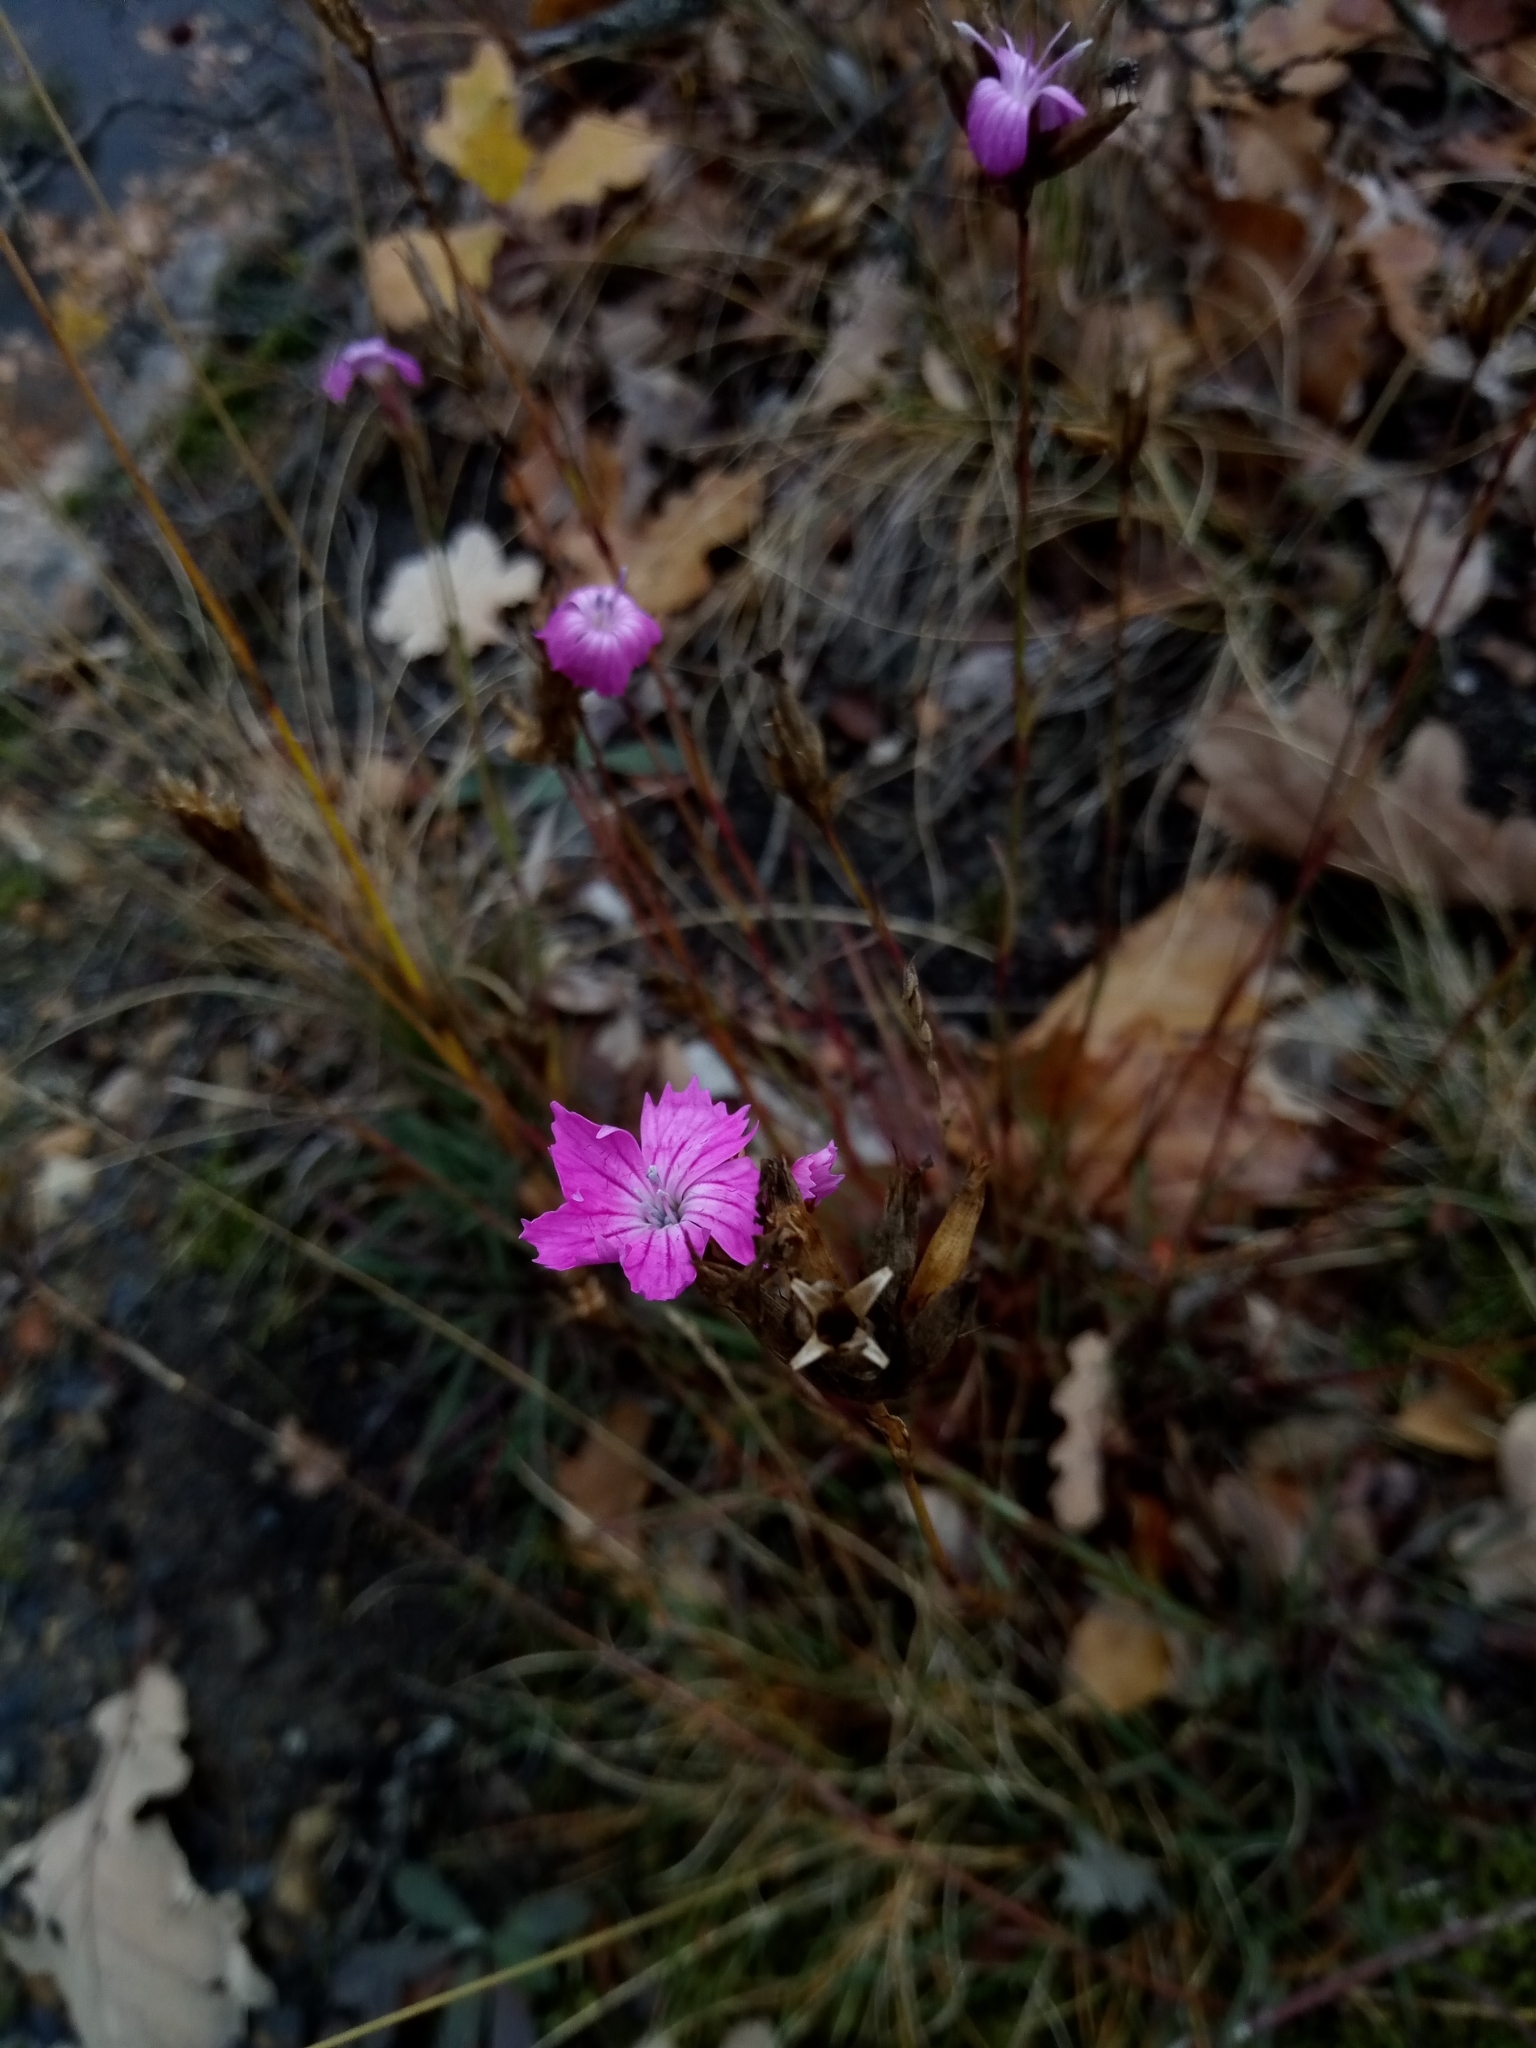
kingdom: Plantae
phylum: Tracheophyta
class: Magnoliopsida
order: Caryophyllales
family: Caryophyllaceae
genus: Dianthus
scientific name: Dianthus carthusianorum
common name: Carthusian pink
